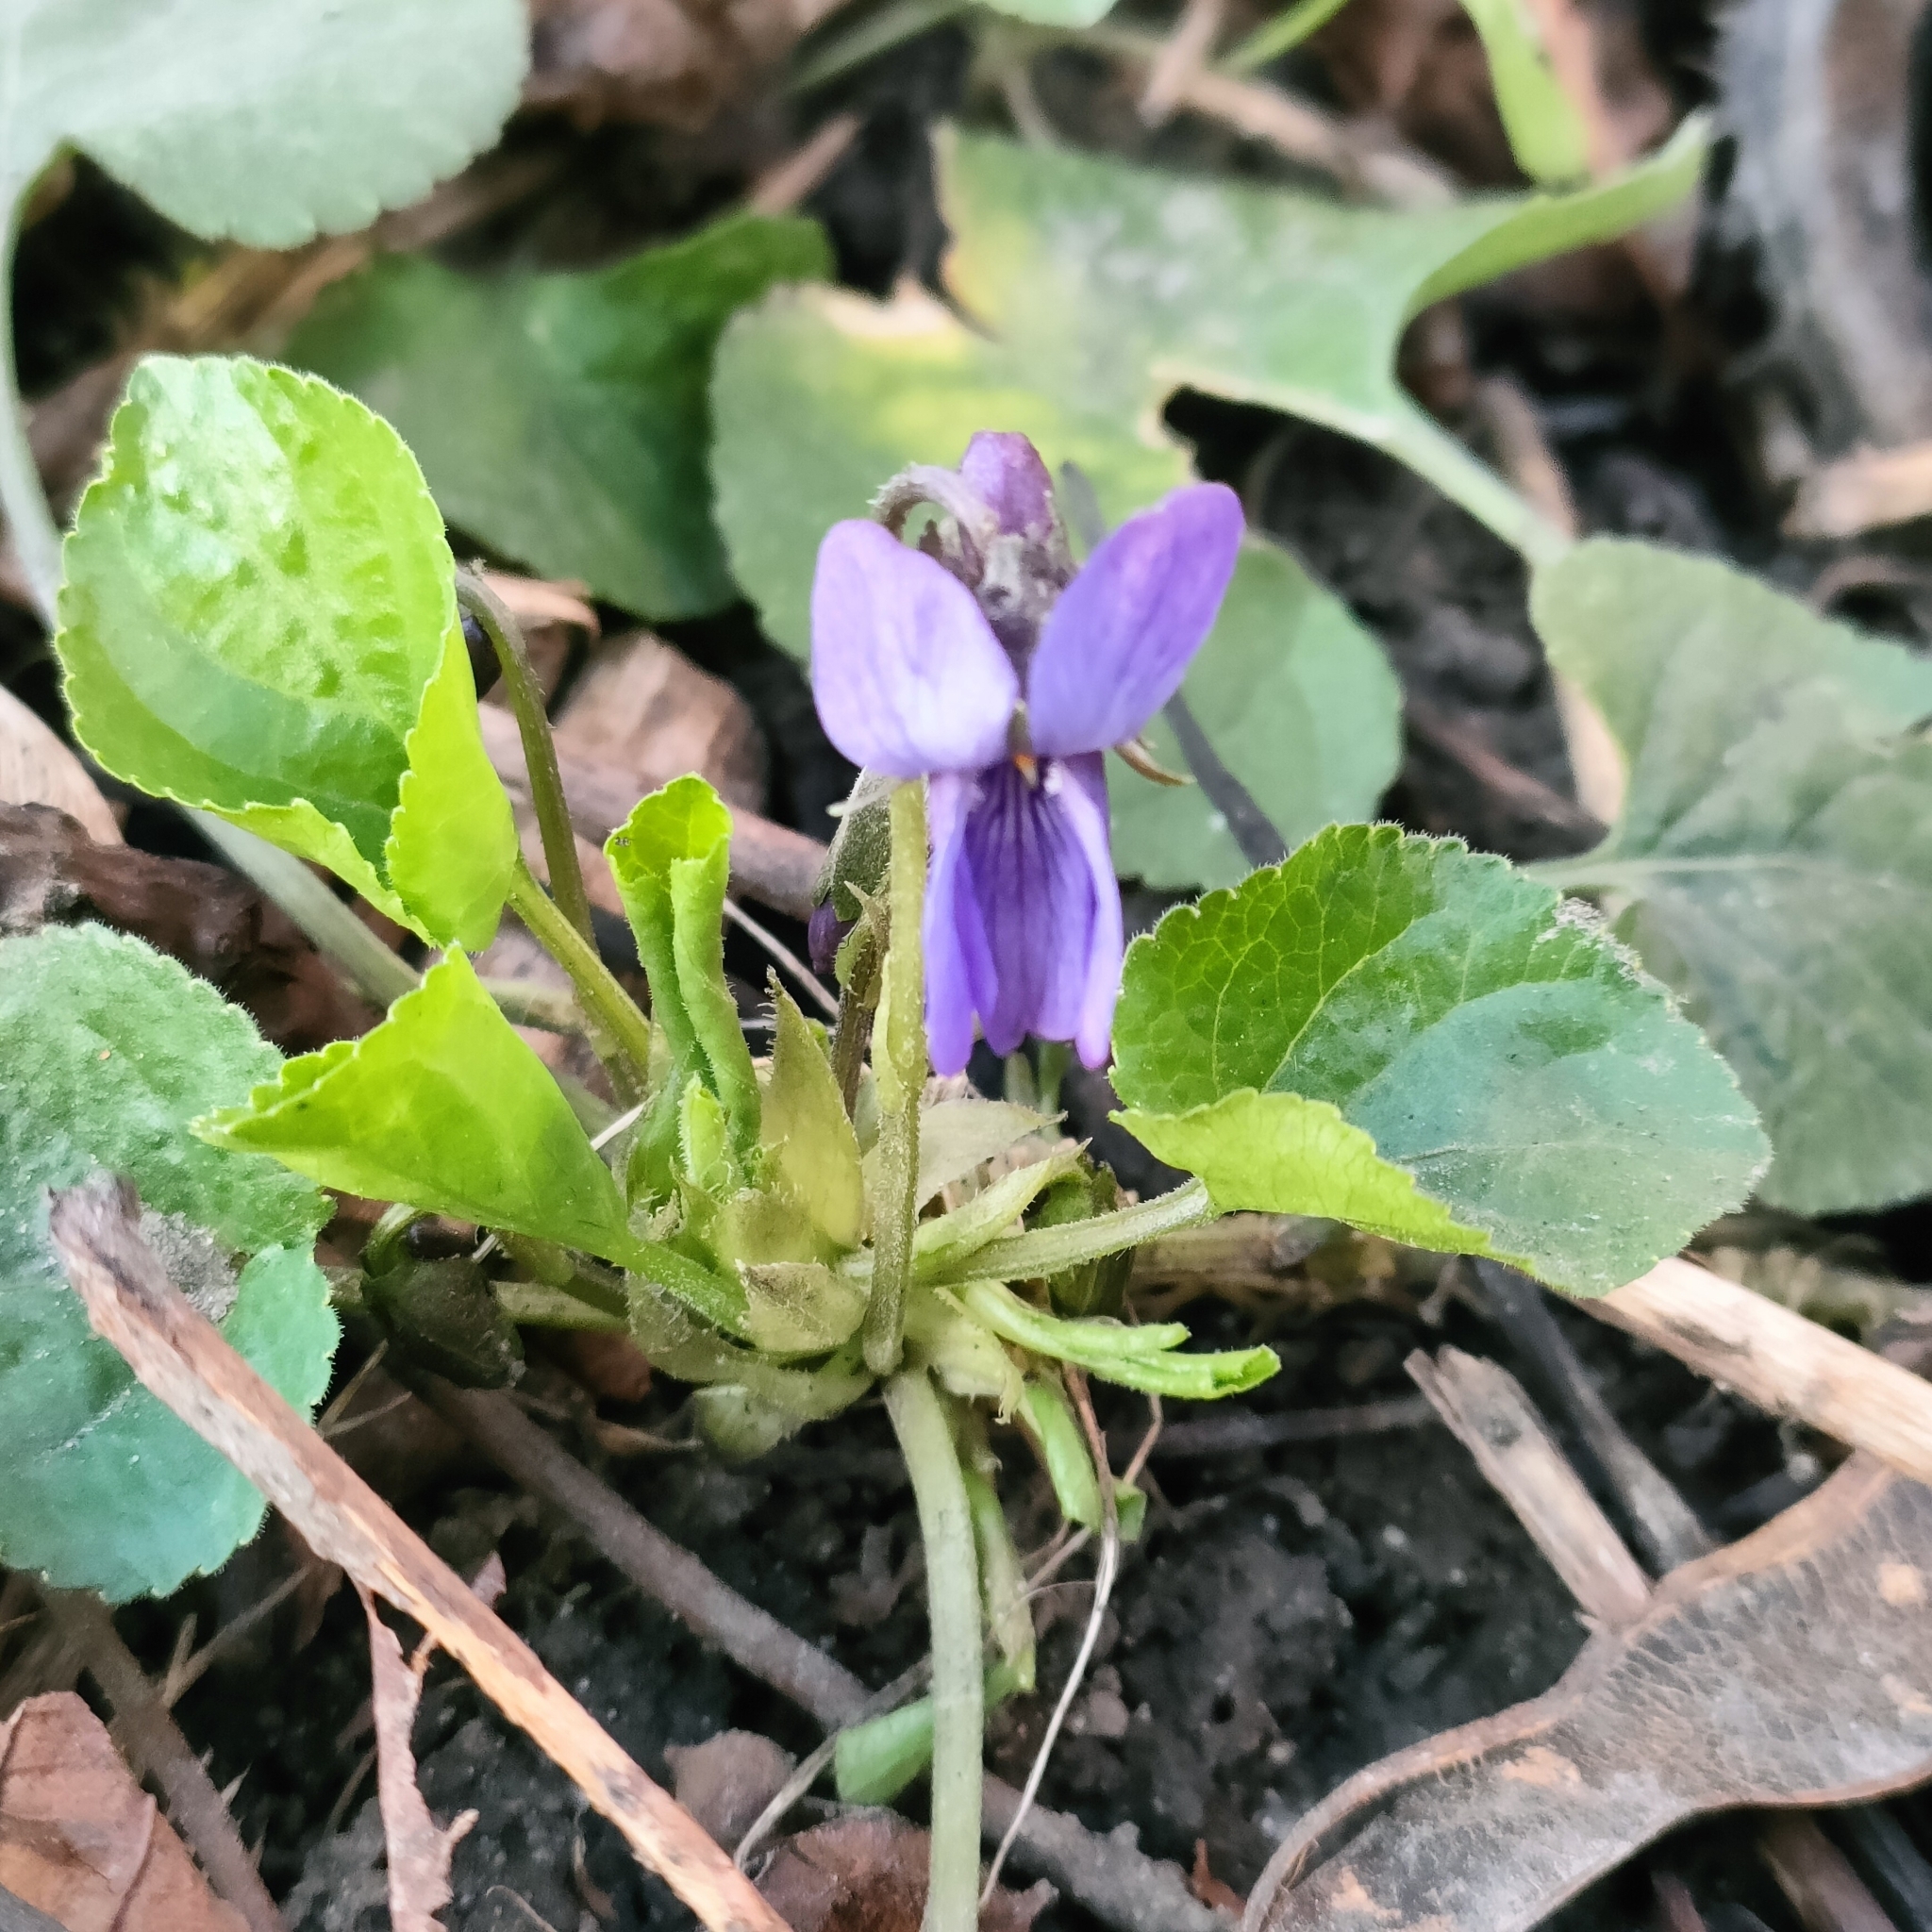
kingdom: Plantae
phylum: Tracheophyta
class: Magnoliopsida
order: Malpighiales
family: Violaceae
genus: Viola
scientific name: Viola odorata
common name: Sweet violet
